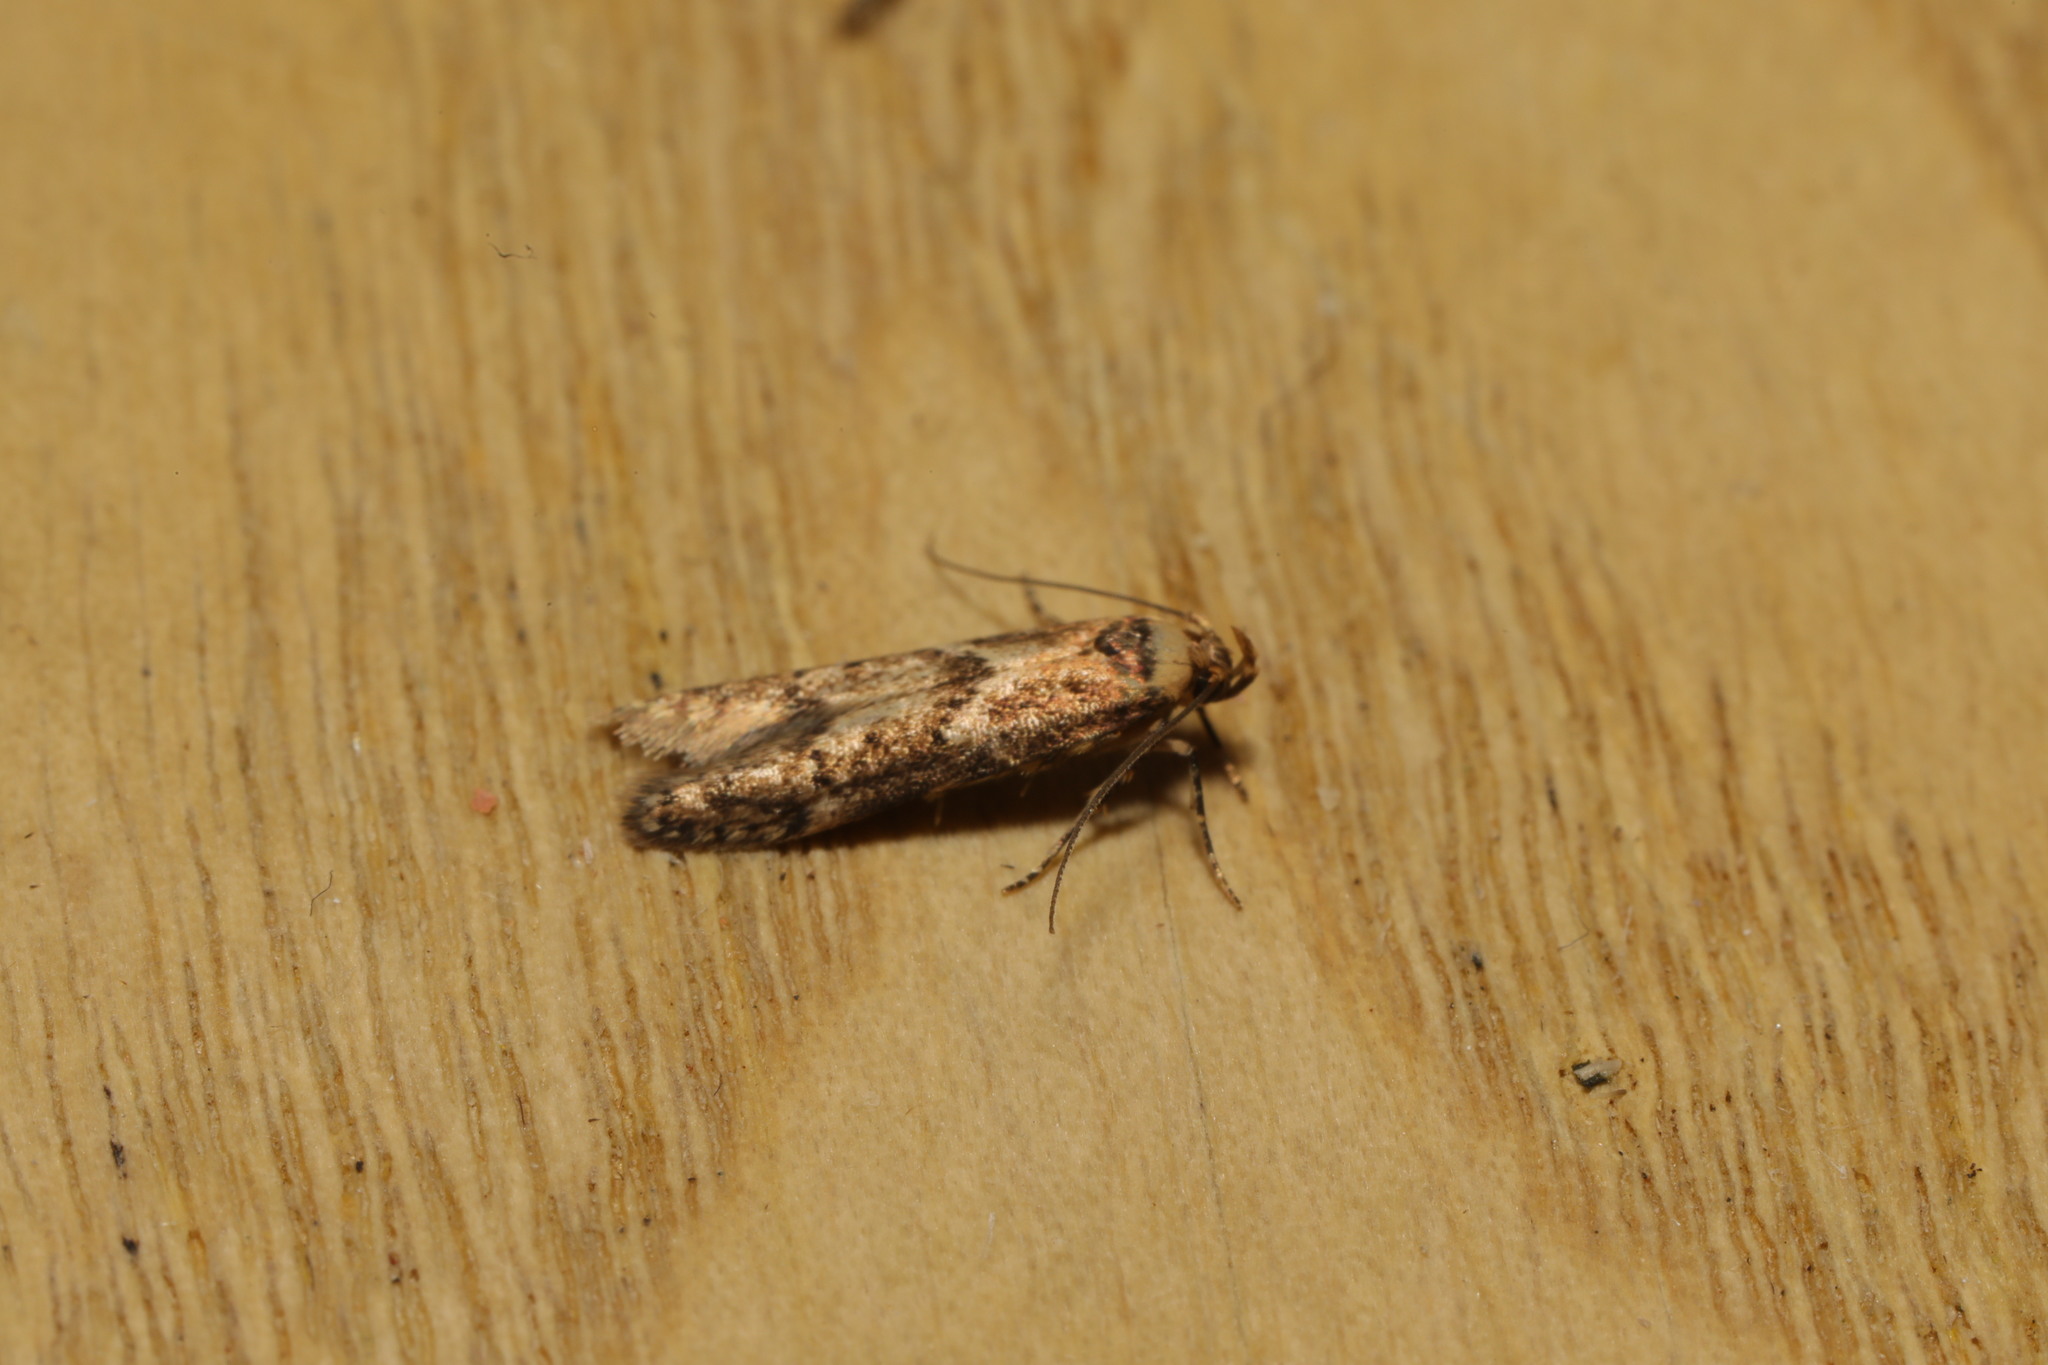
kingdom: Animalia
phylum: Arthropoda
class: Insecta
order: Lepidoptera
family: Blastobasidae
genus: Blastobasis
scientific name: Blastobasis adustella
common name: Dingy dowd
